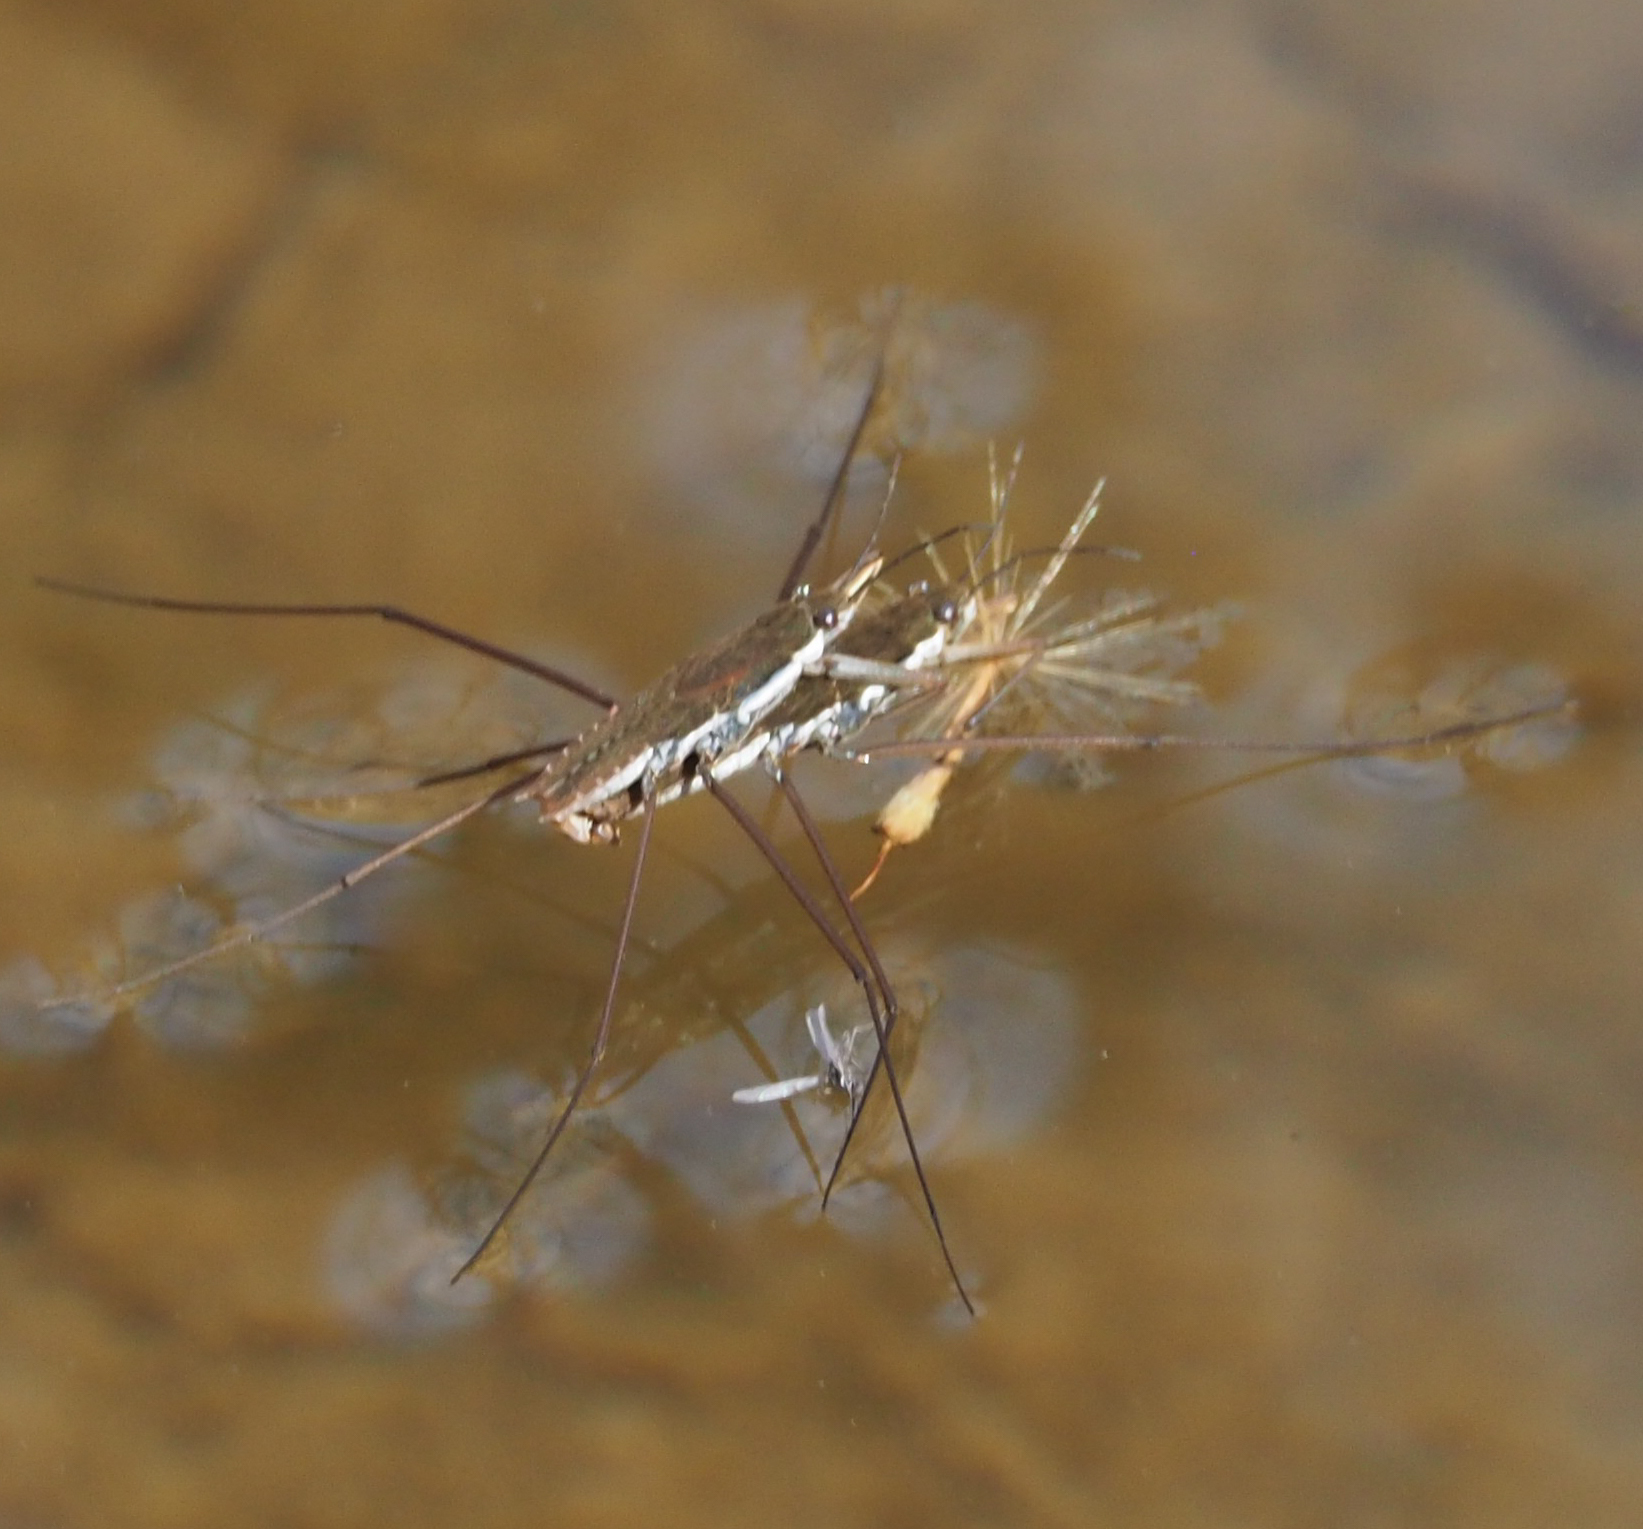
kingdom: Animalia
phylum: Arthropoda
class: Insecta
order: Hemiptera
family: Gerridae
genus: Aquarius
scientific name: Aquarius
